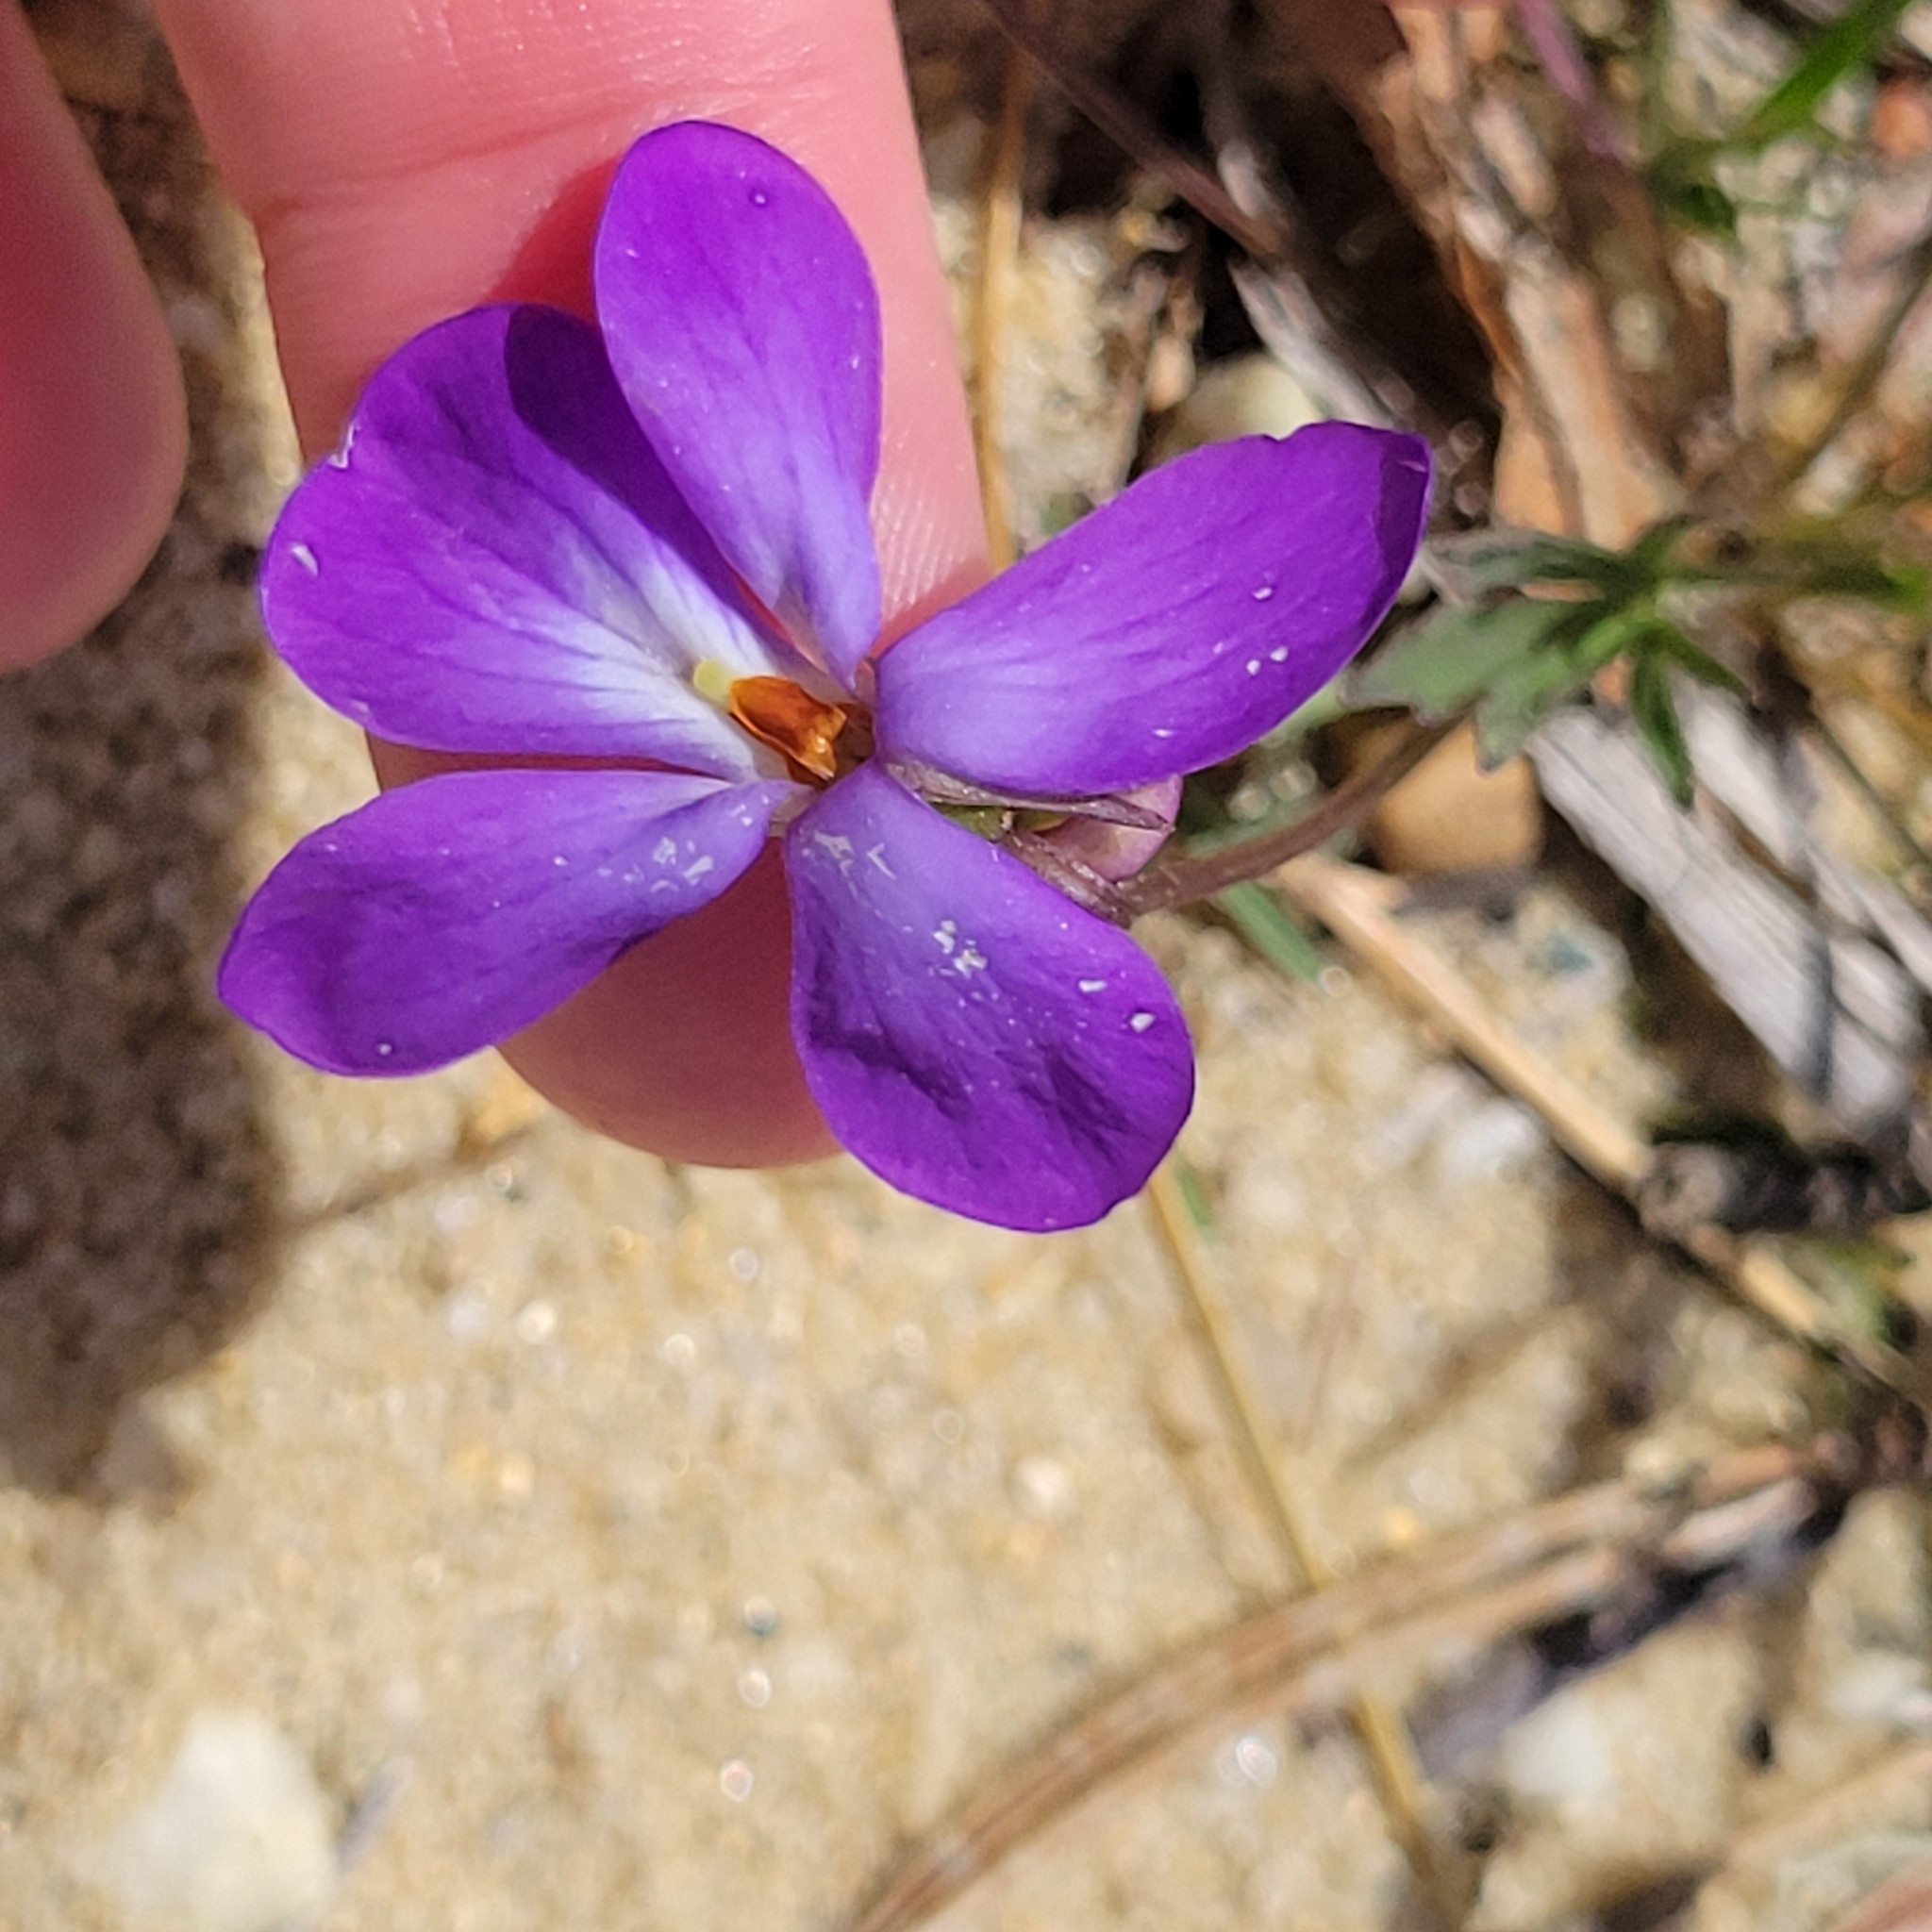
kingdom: Plantae
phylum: Tracheophyta
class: Magnoliopsida
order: Malpighiales
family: Violaceae
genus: Viola
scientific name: Viola pedata
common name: Pansy violet
